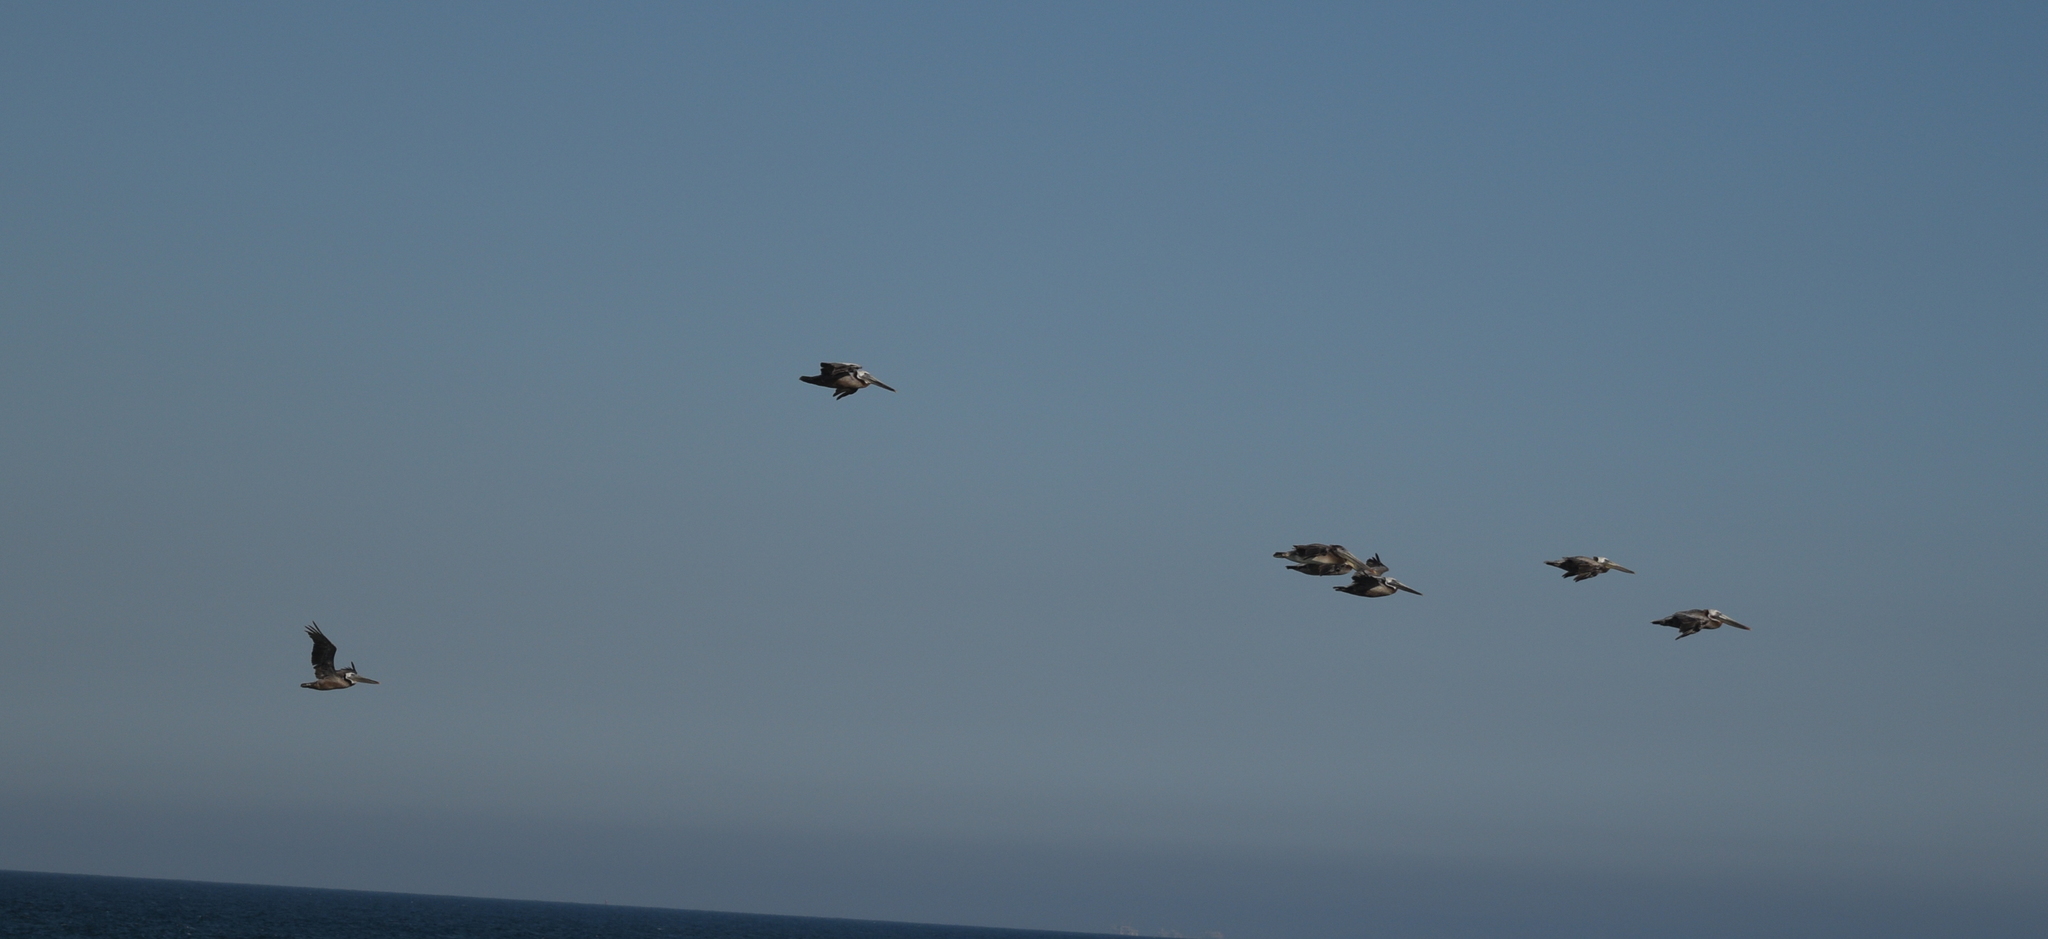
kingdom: Animalia
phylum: Chordata
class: Aves
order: Pelecaniformes
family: Pelecanidae
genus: Pelecanus
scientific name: Pelecanus occidentalis
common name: Brown pelican
